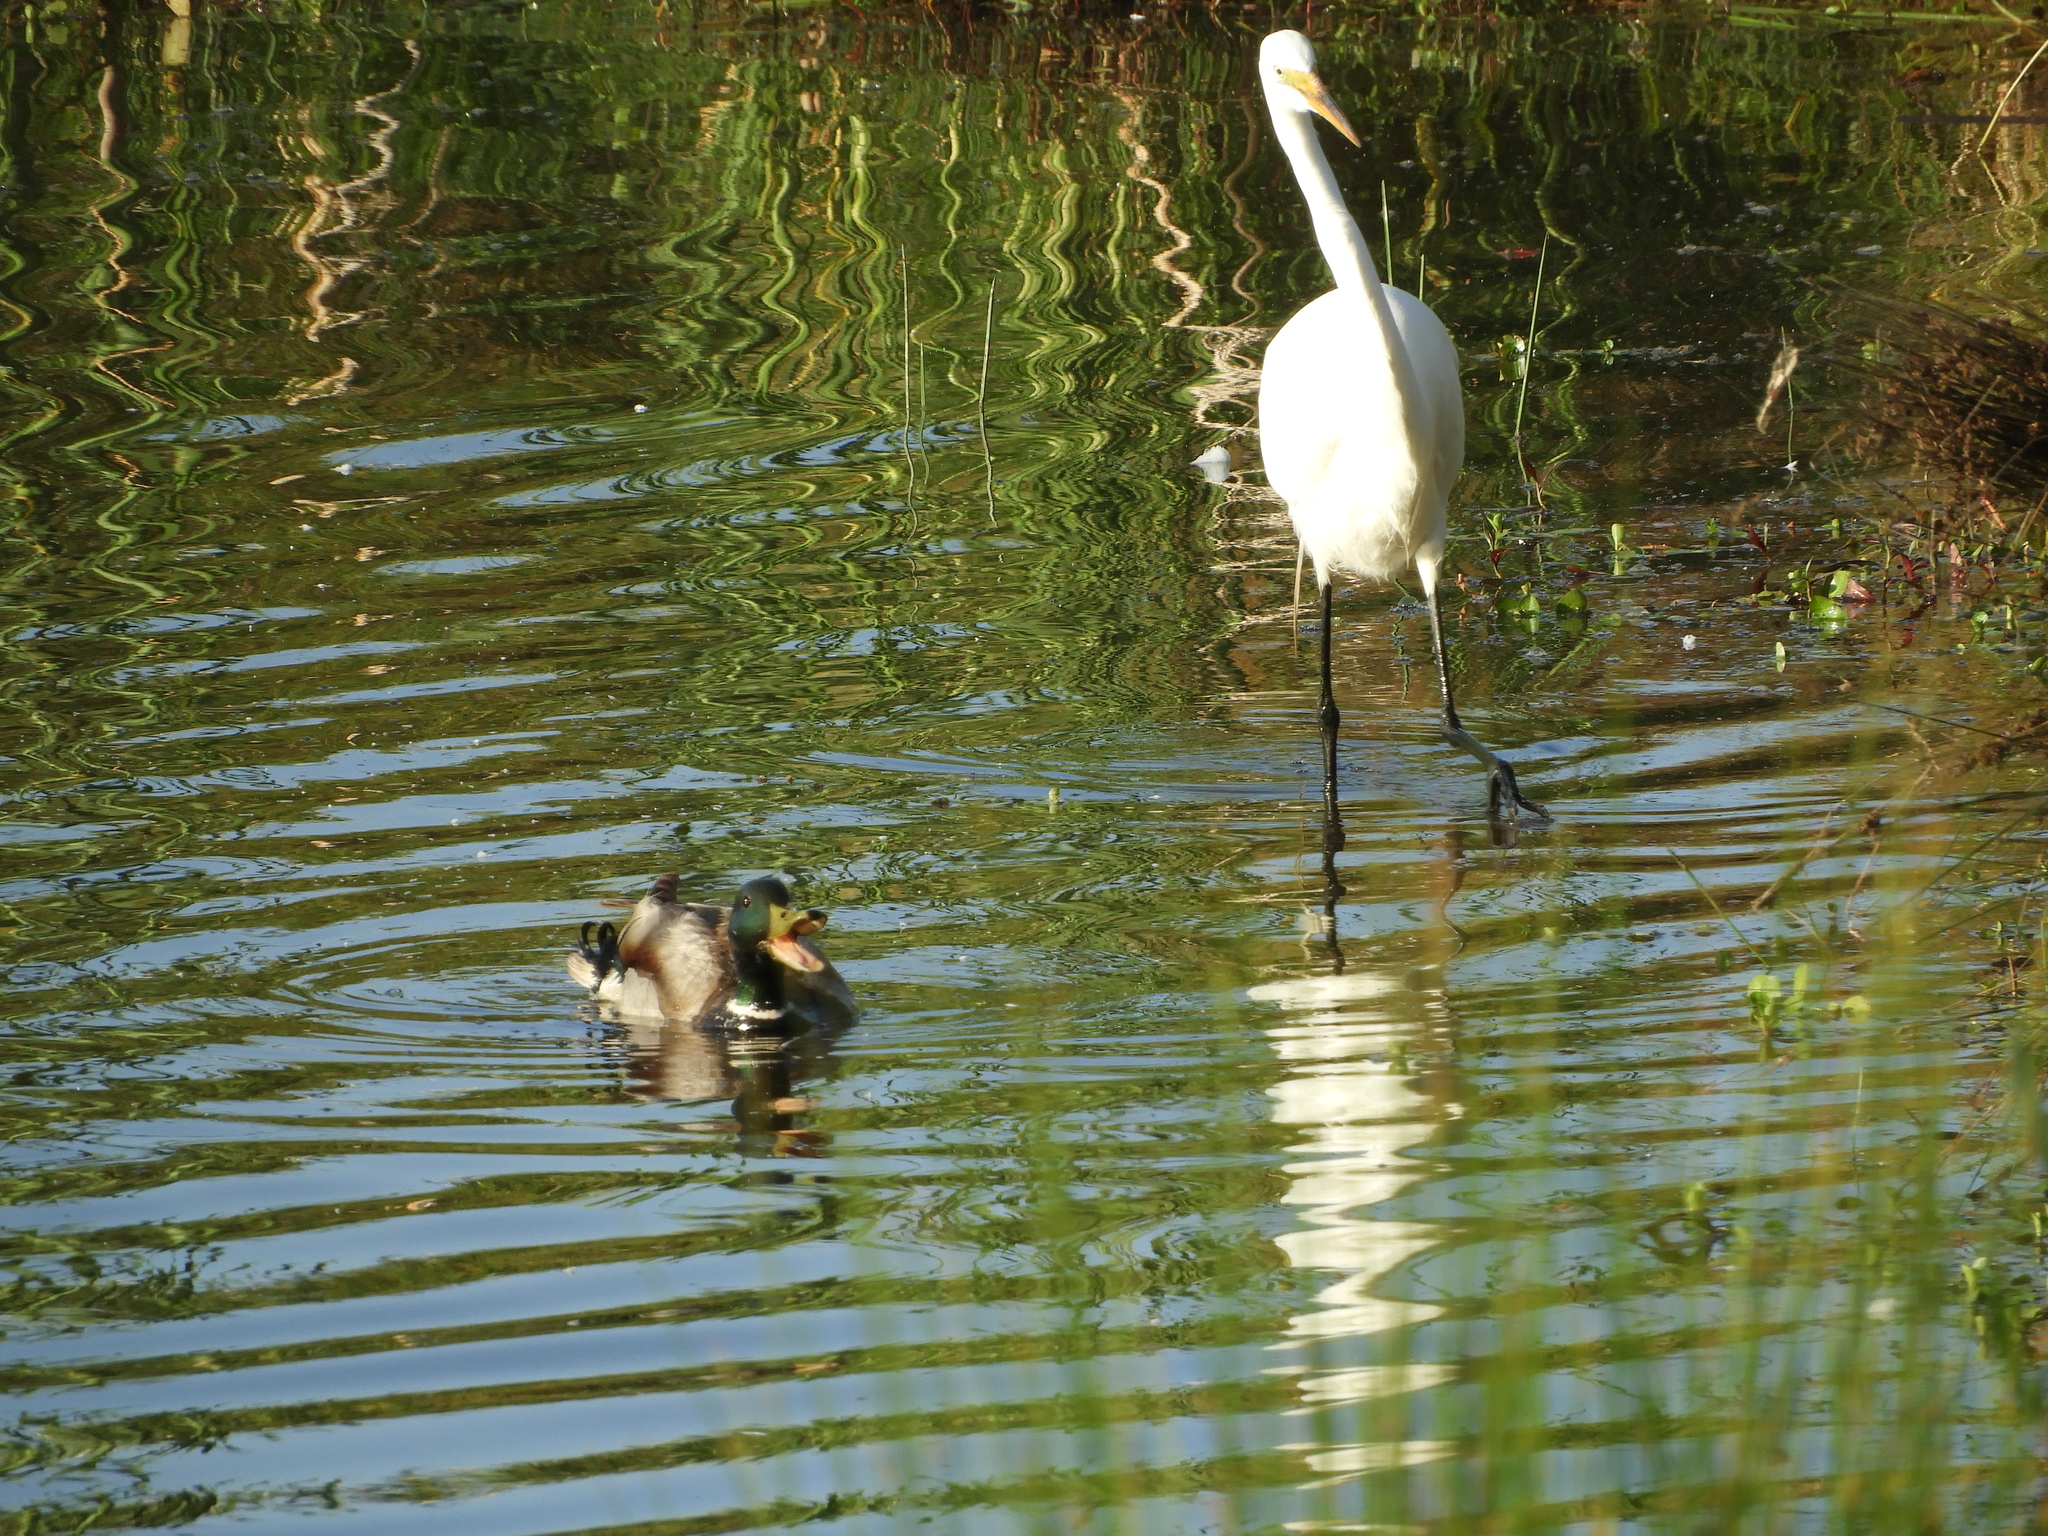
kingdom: Animalia
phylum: Chordata
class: Aves
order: Anseriformes
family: Anatidae
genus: Anas
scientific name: Anas platyrhynchos
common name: Mallard
